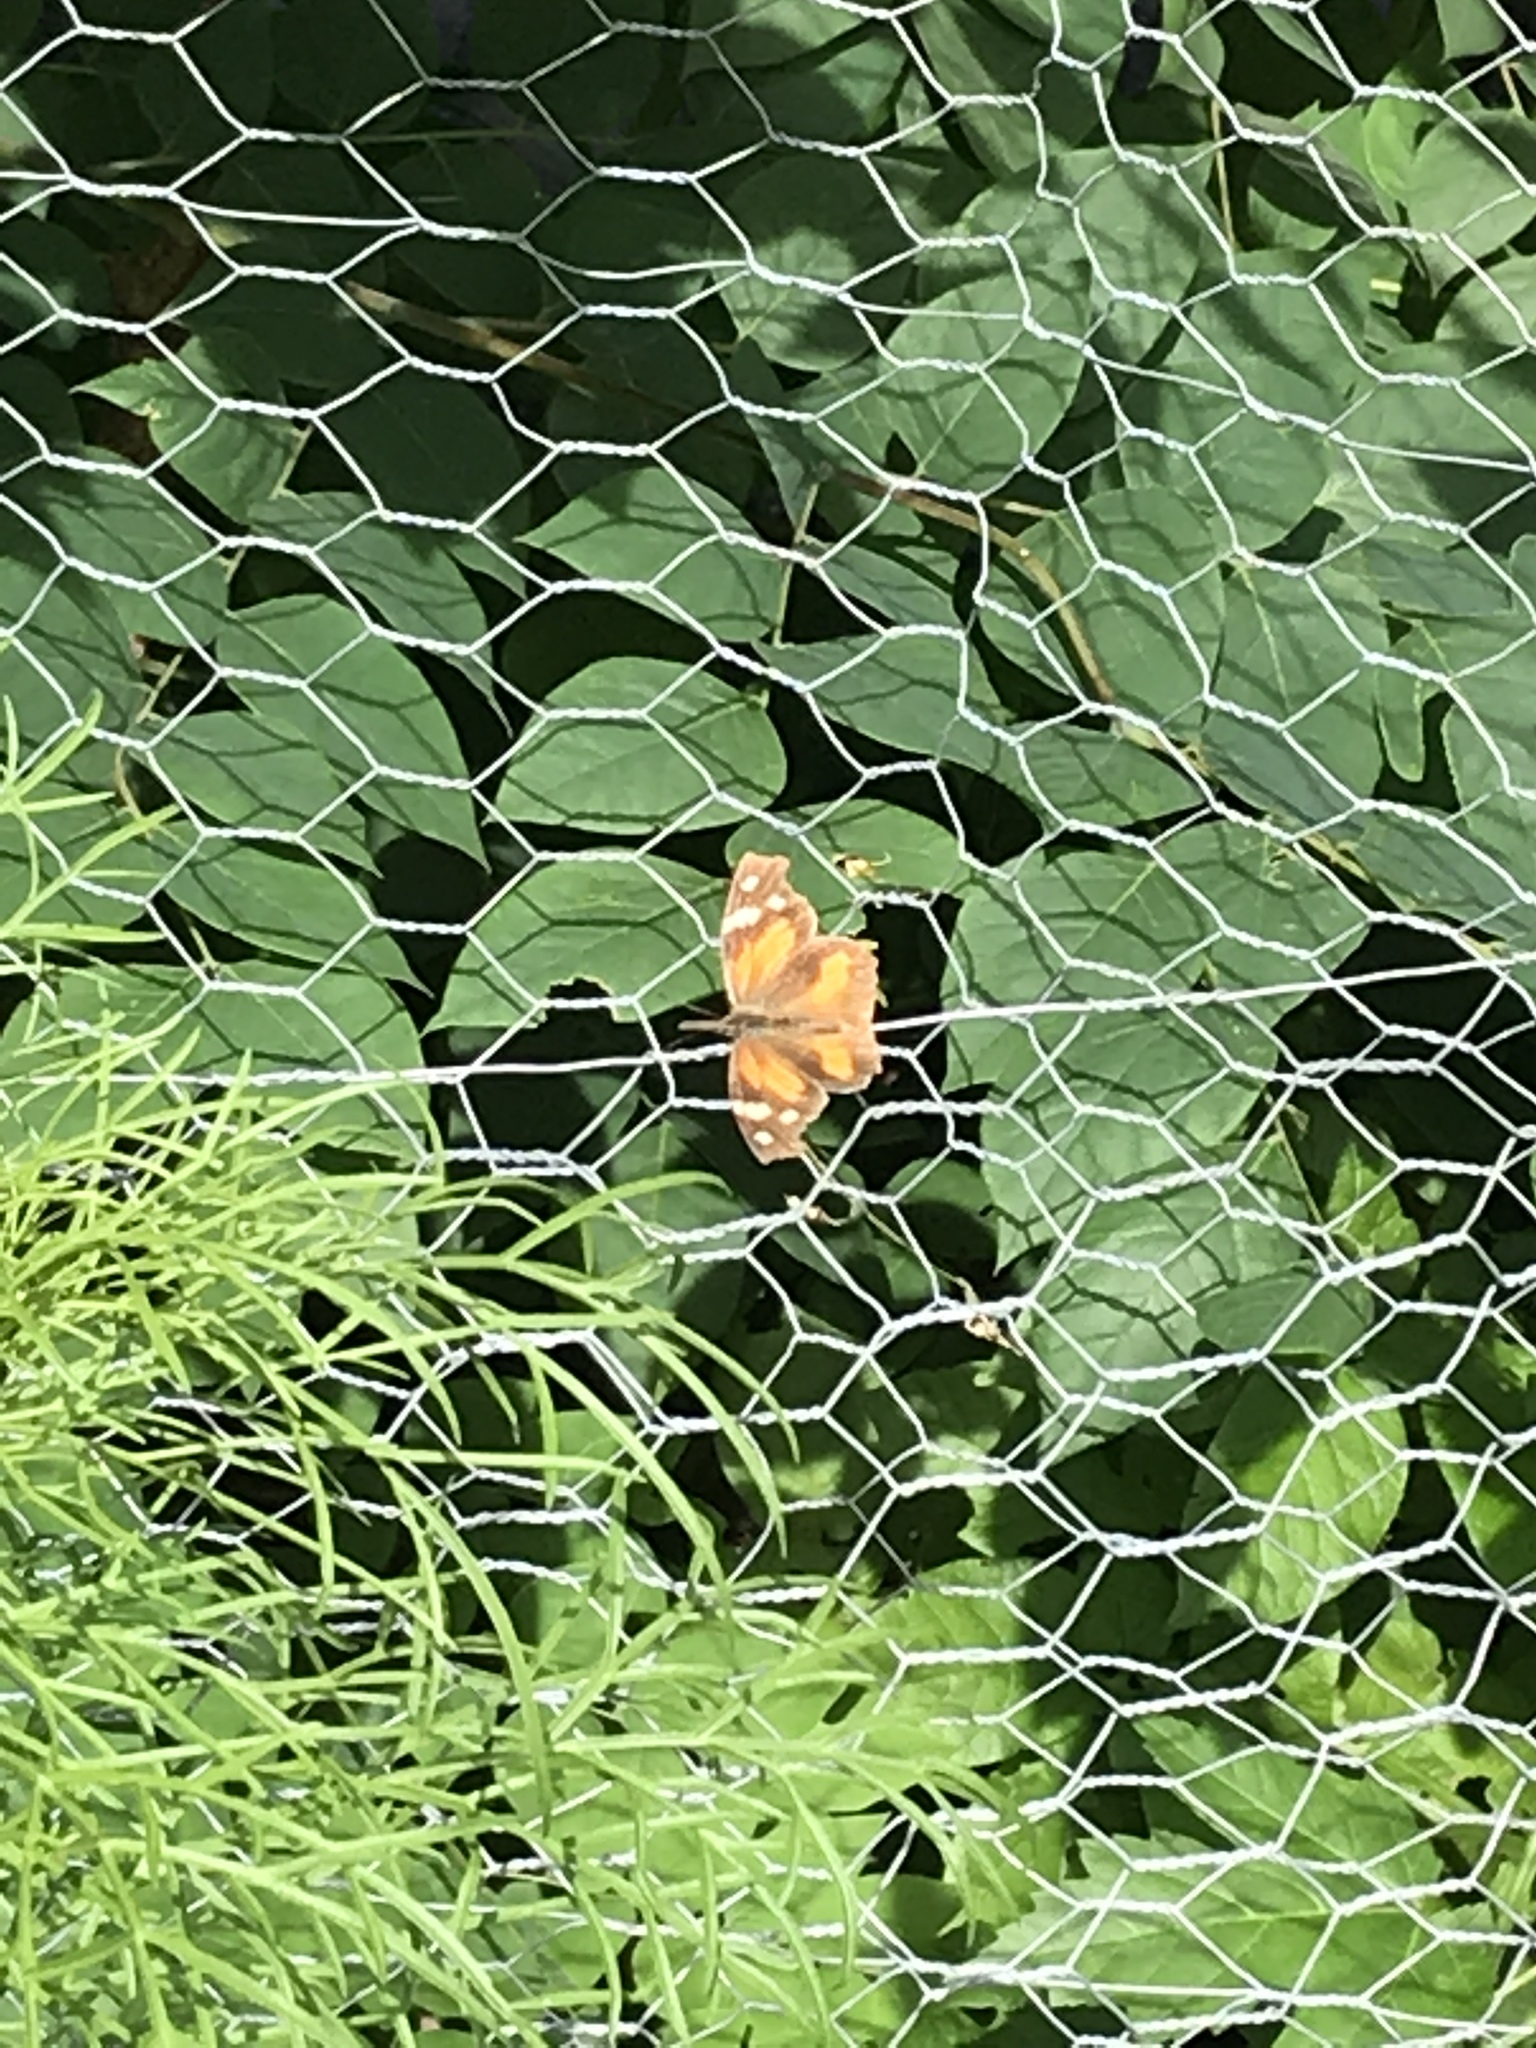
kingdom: Animalia
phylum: Arthropoda
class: Insecta
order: Lepidoptera
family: Nymphalidae
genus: Libytheana
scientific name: Libytheana carinenta
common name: American snout
